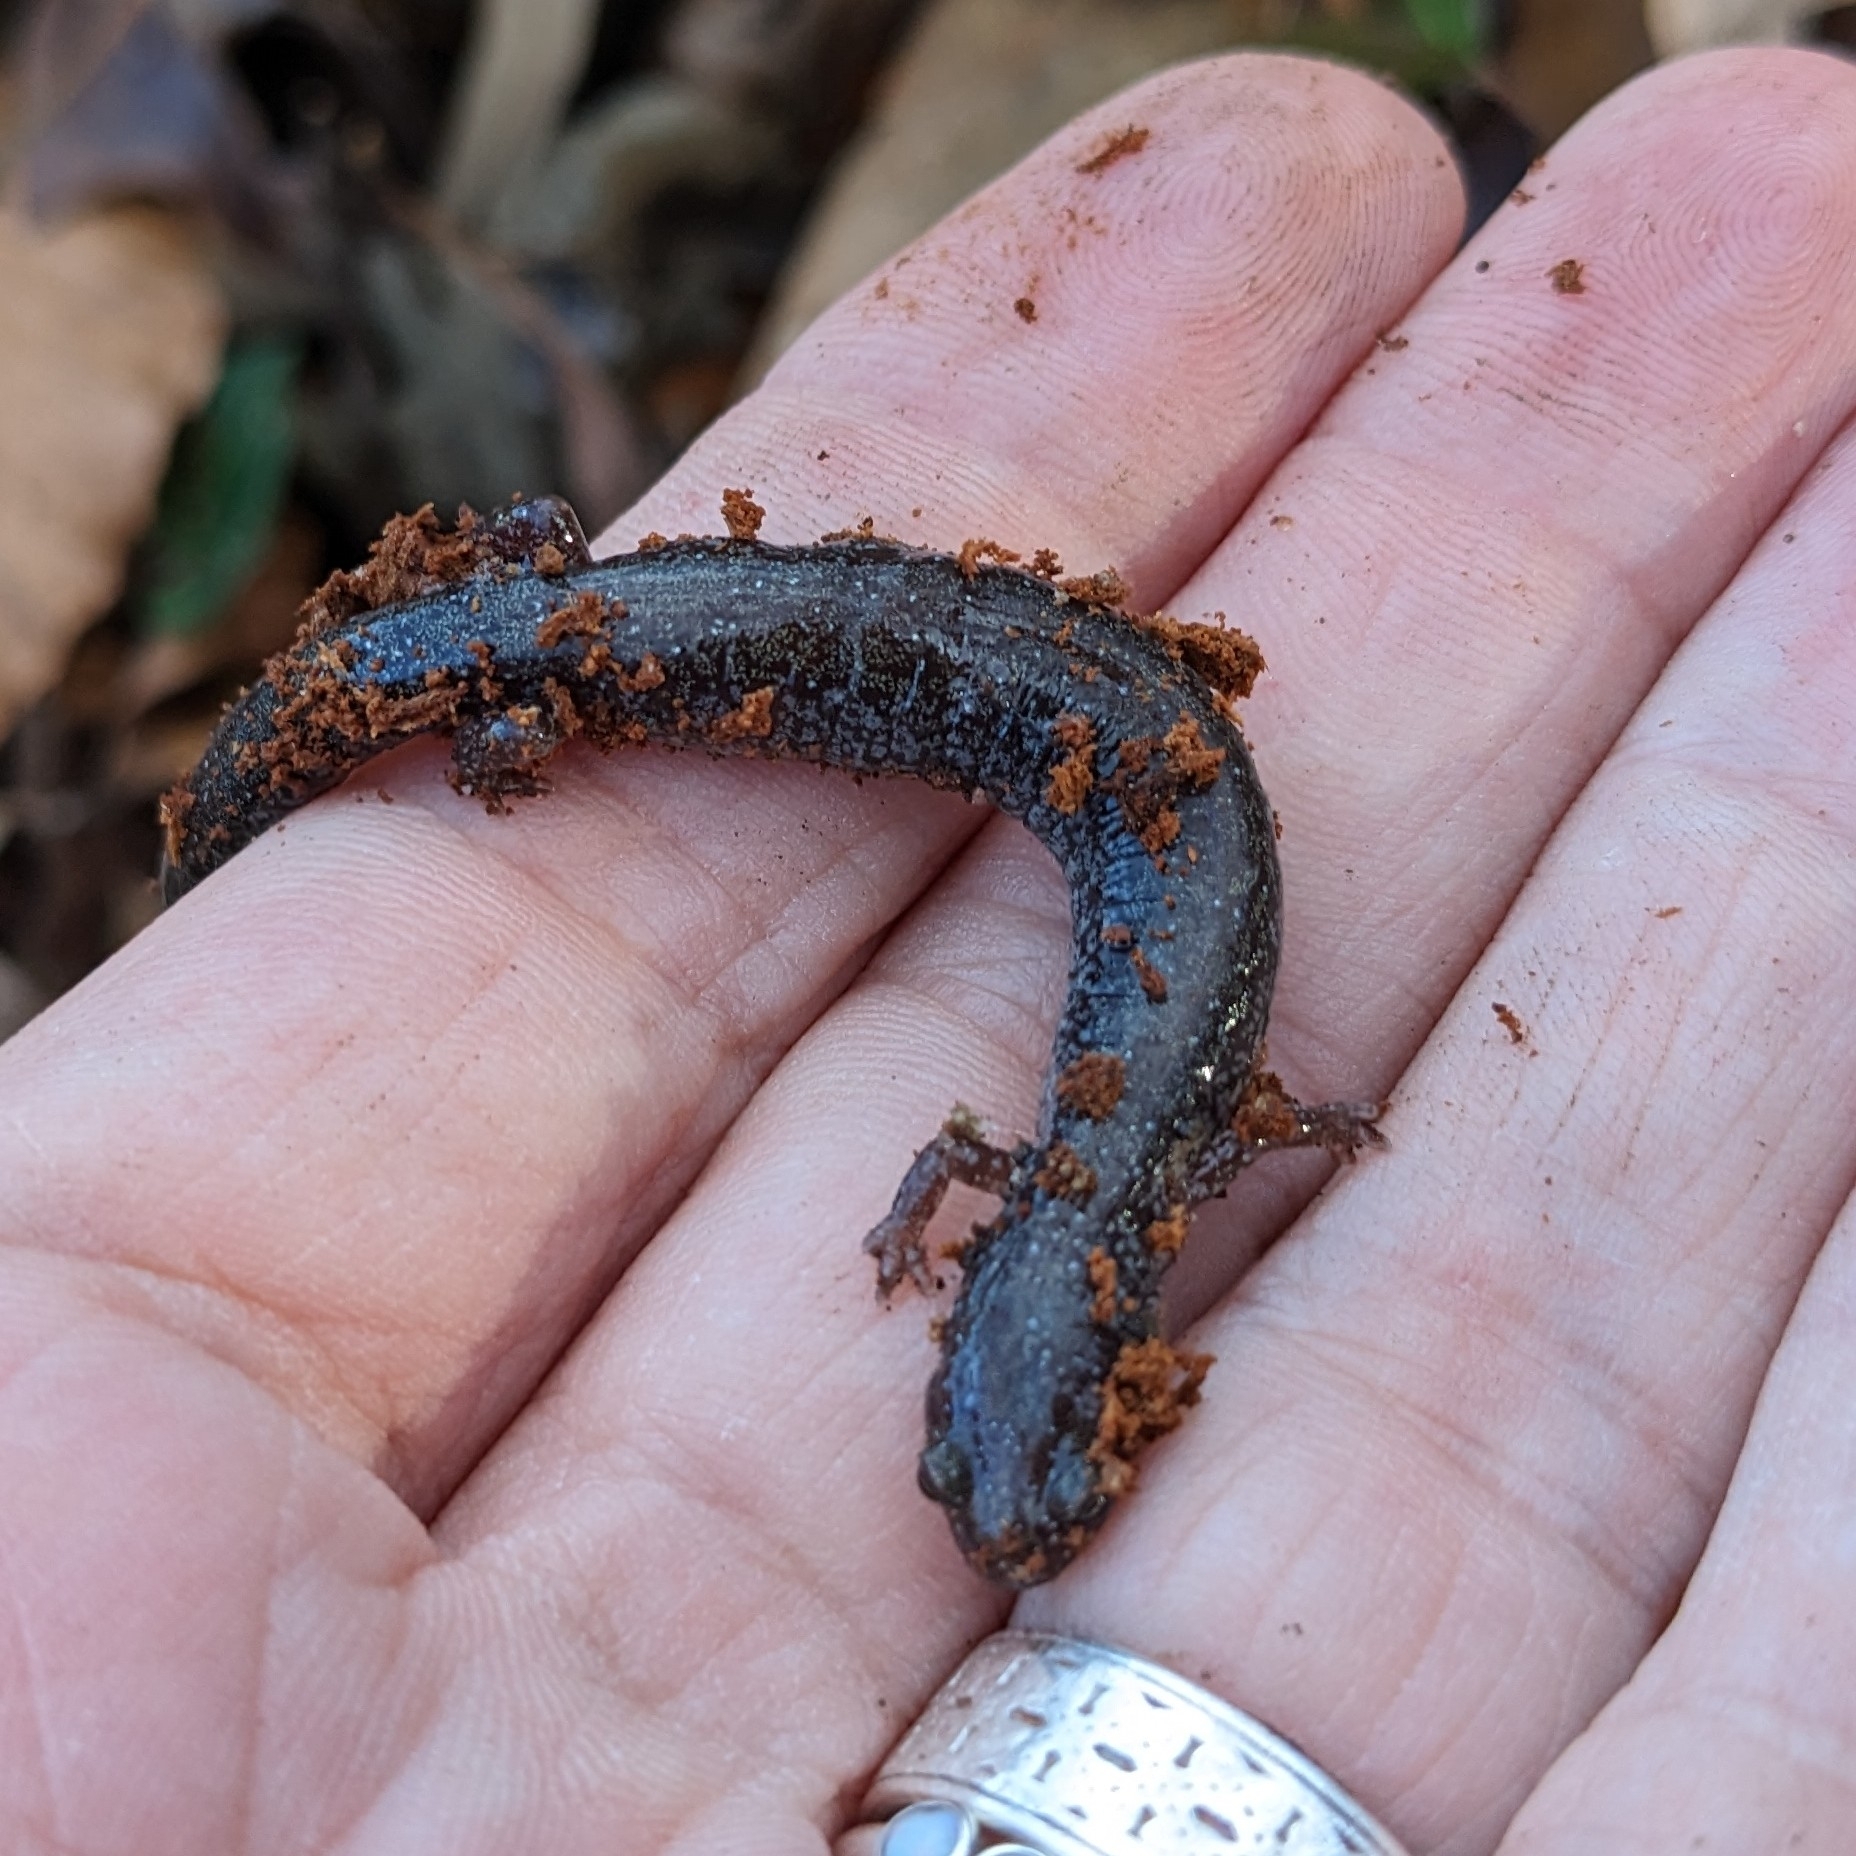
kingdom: Animalia
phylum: Chordata
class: Amphibia
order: Caudata
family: Plethodontidae
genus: Plethodon
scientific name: Plethodon cinereus
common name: Redback salamander
